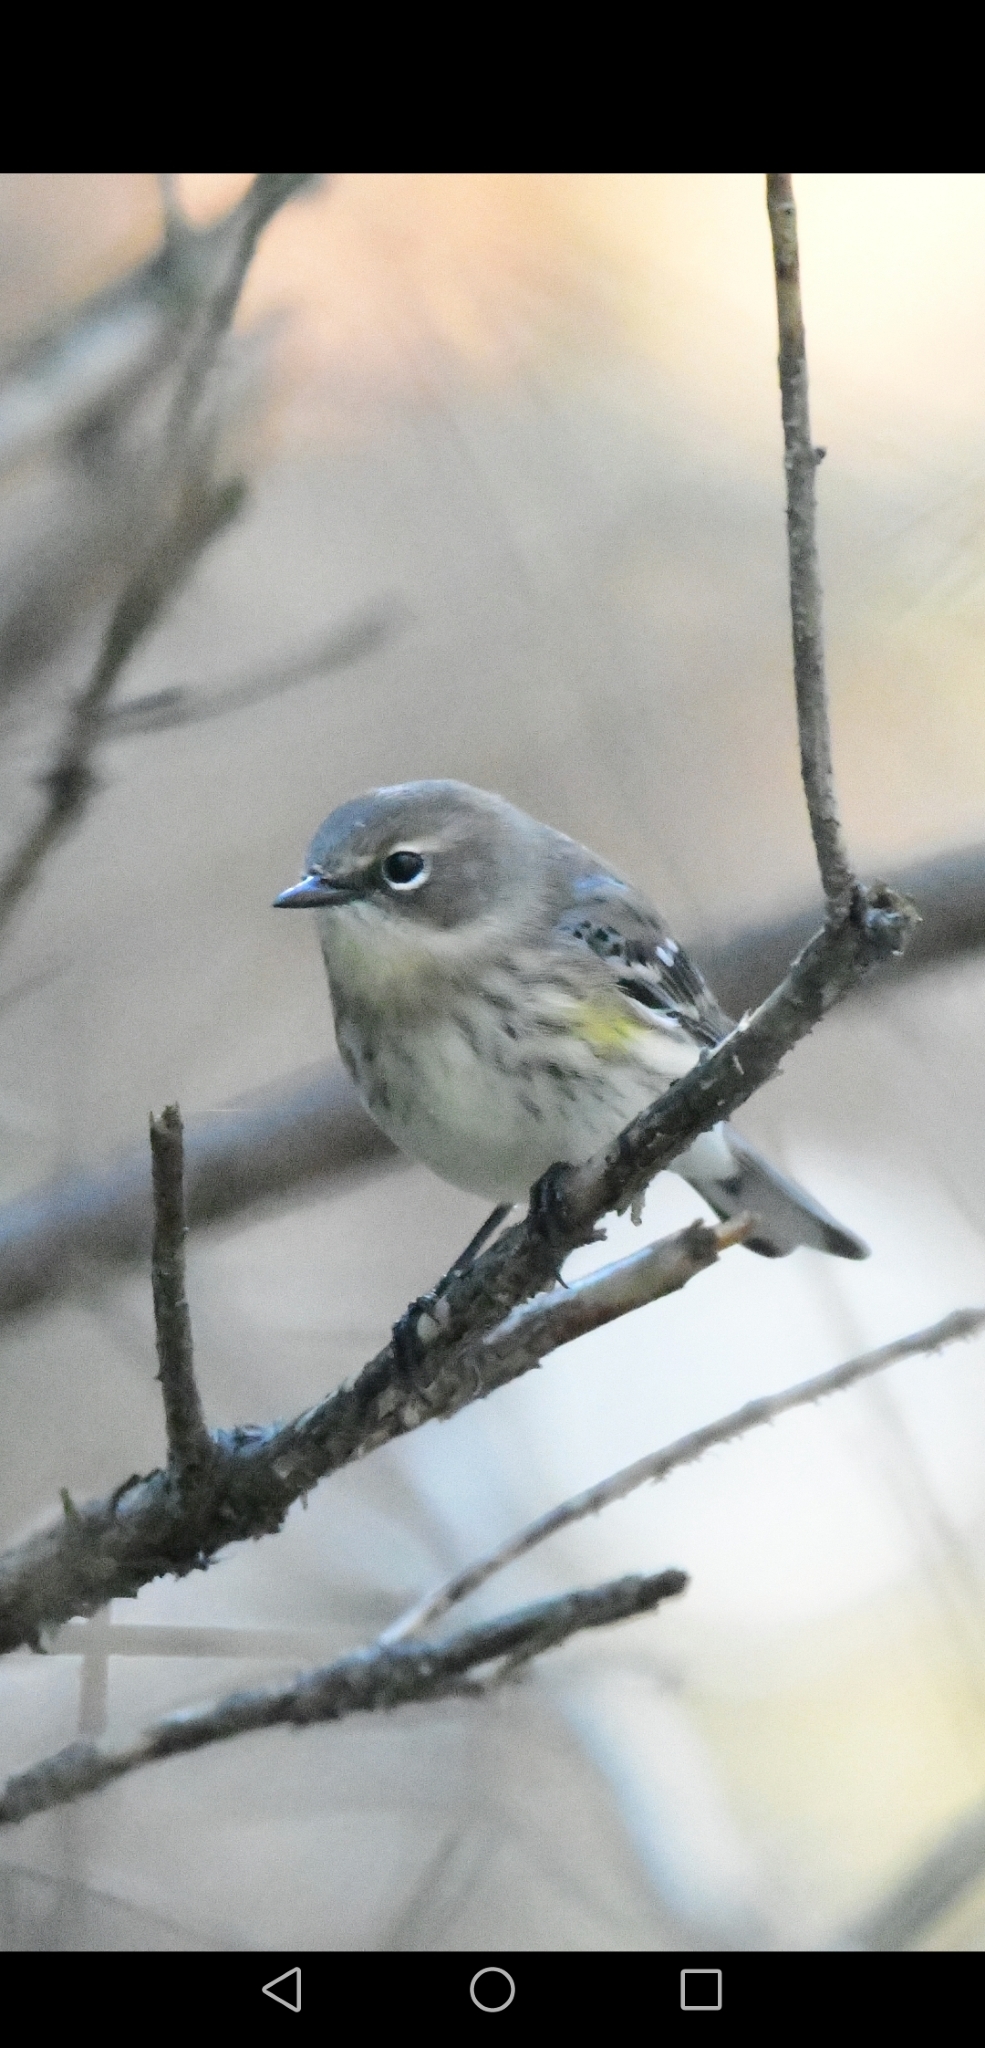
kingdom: Animalia
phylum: Chordata
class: Aves
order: Passeriformes
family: Parulidae
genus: Setophaga
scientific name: Setophaga coronata
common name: Myrtle warbler
